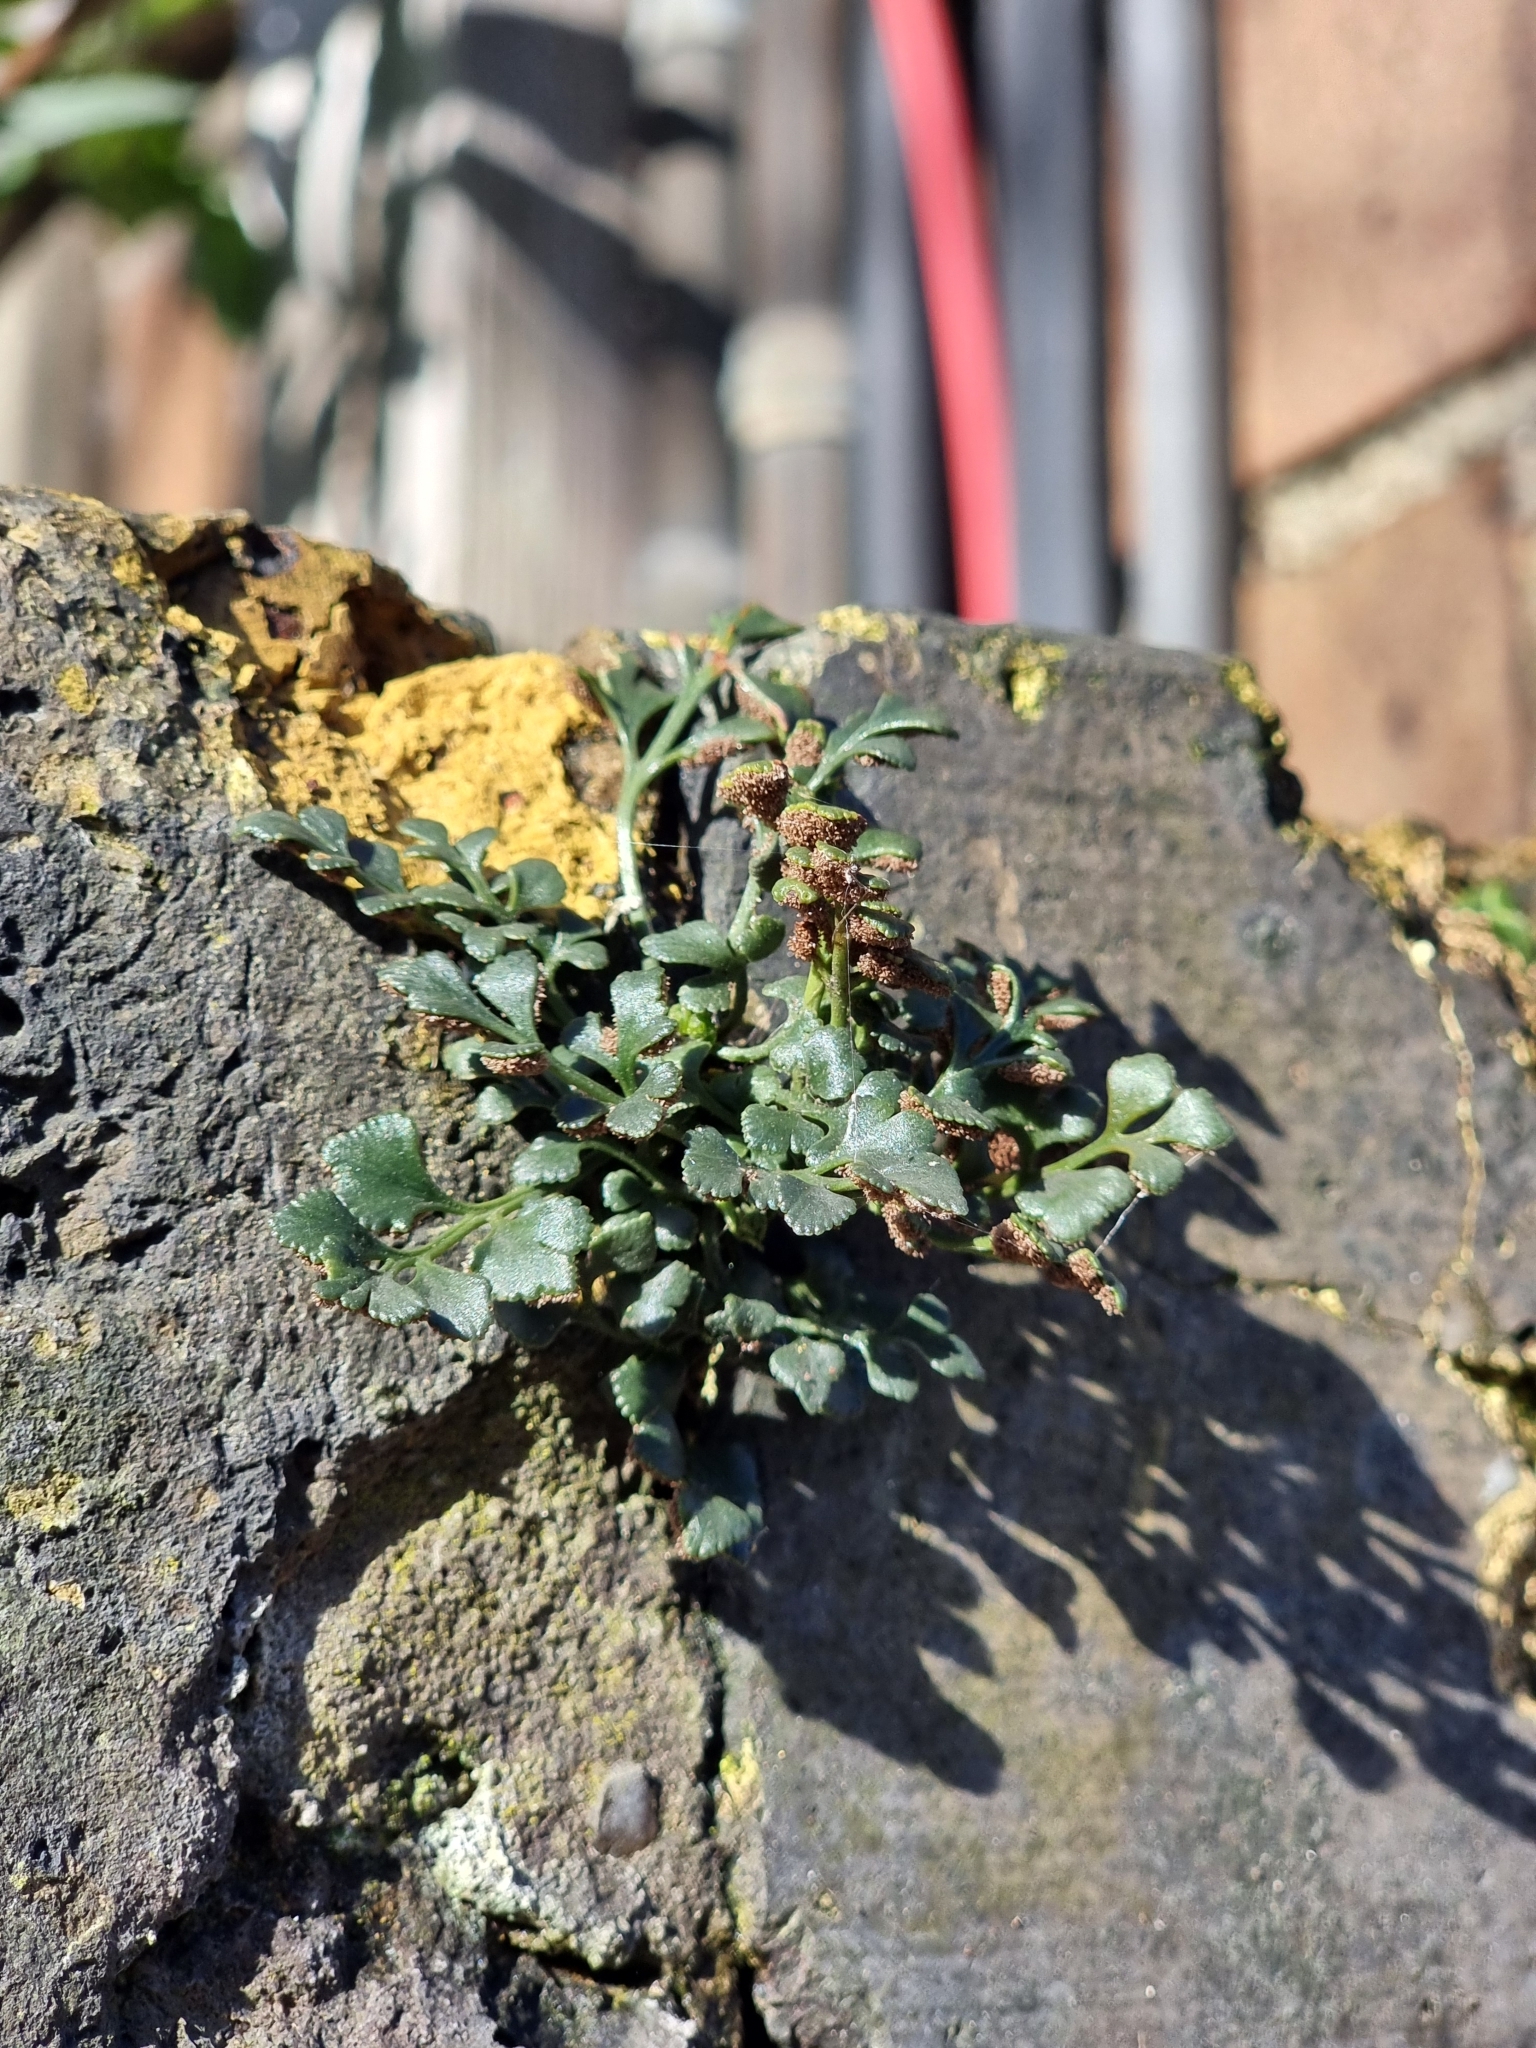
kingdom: Plantae
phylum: Tracheophyta
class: Polypodiopsida
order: Polypodiales
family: Aspleniaceae
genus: Asplenium
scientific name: Asplenium ruta-muraria
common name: Wall-rue
